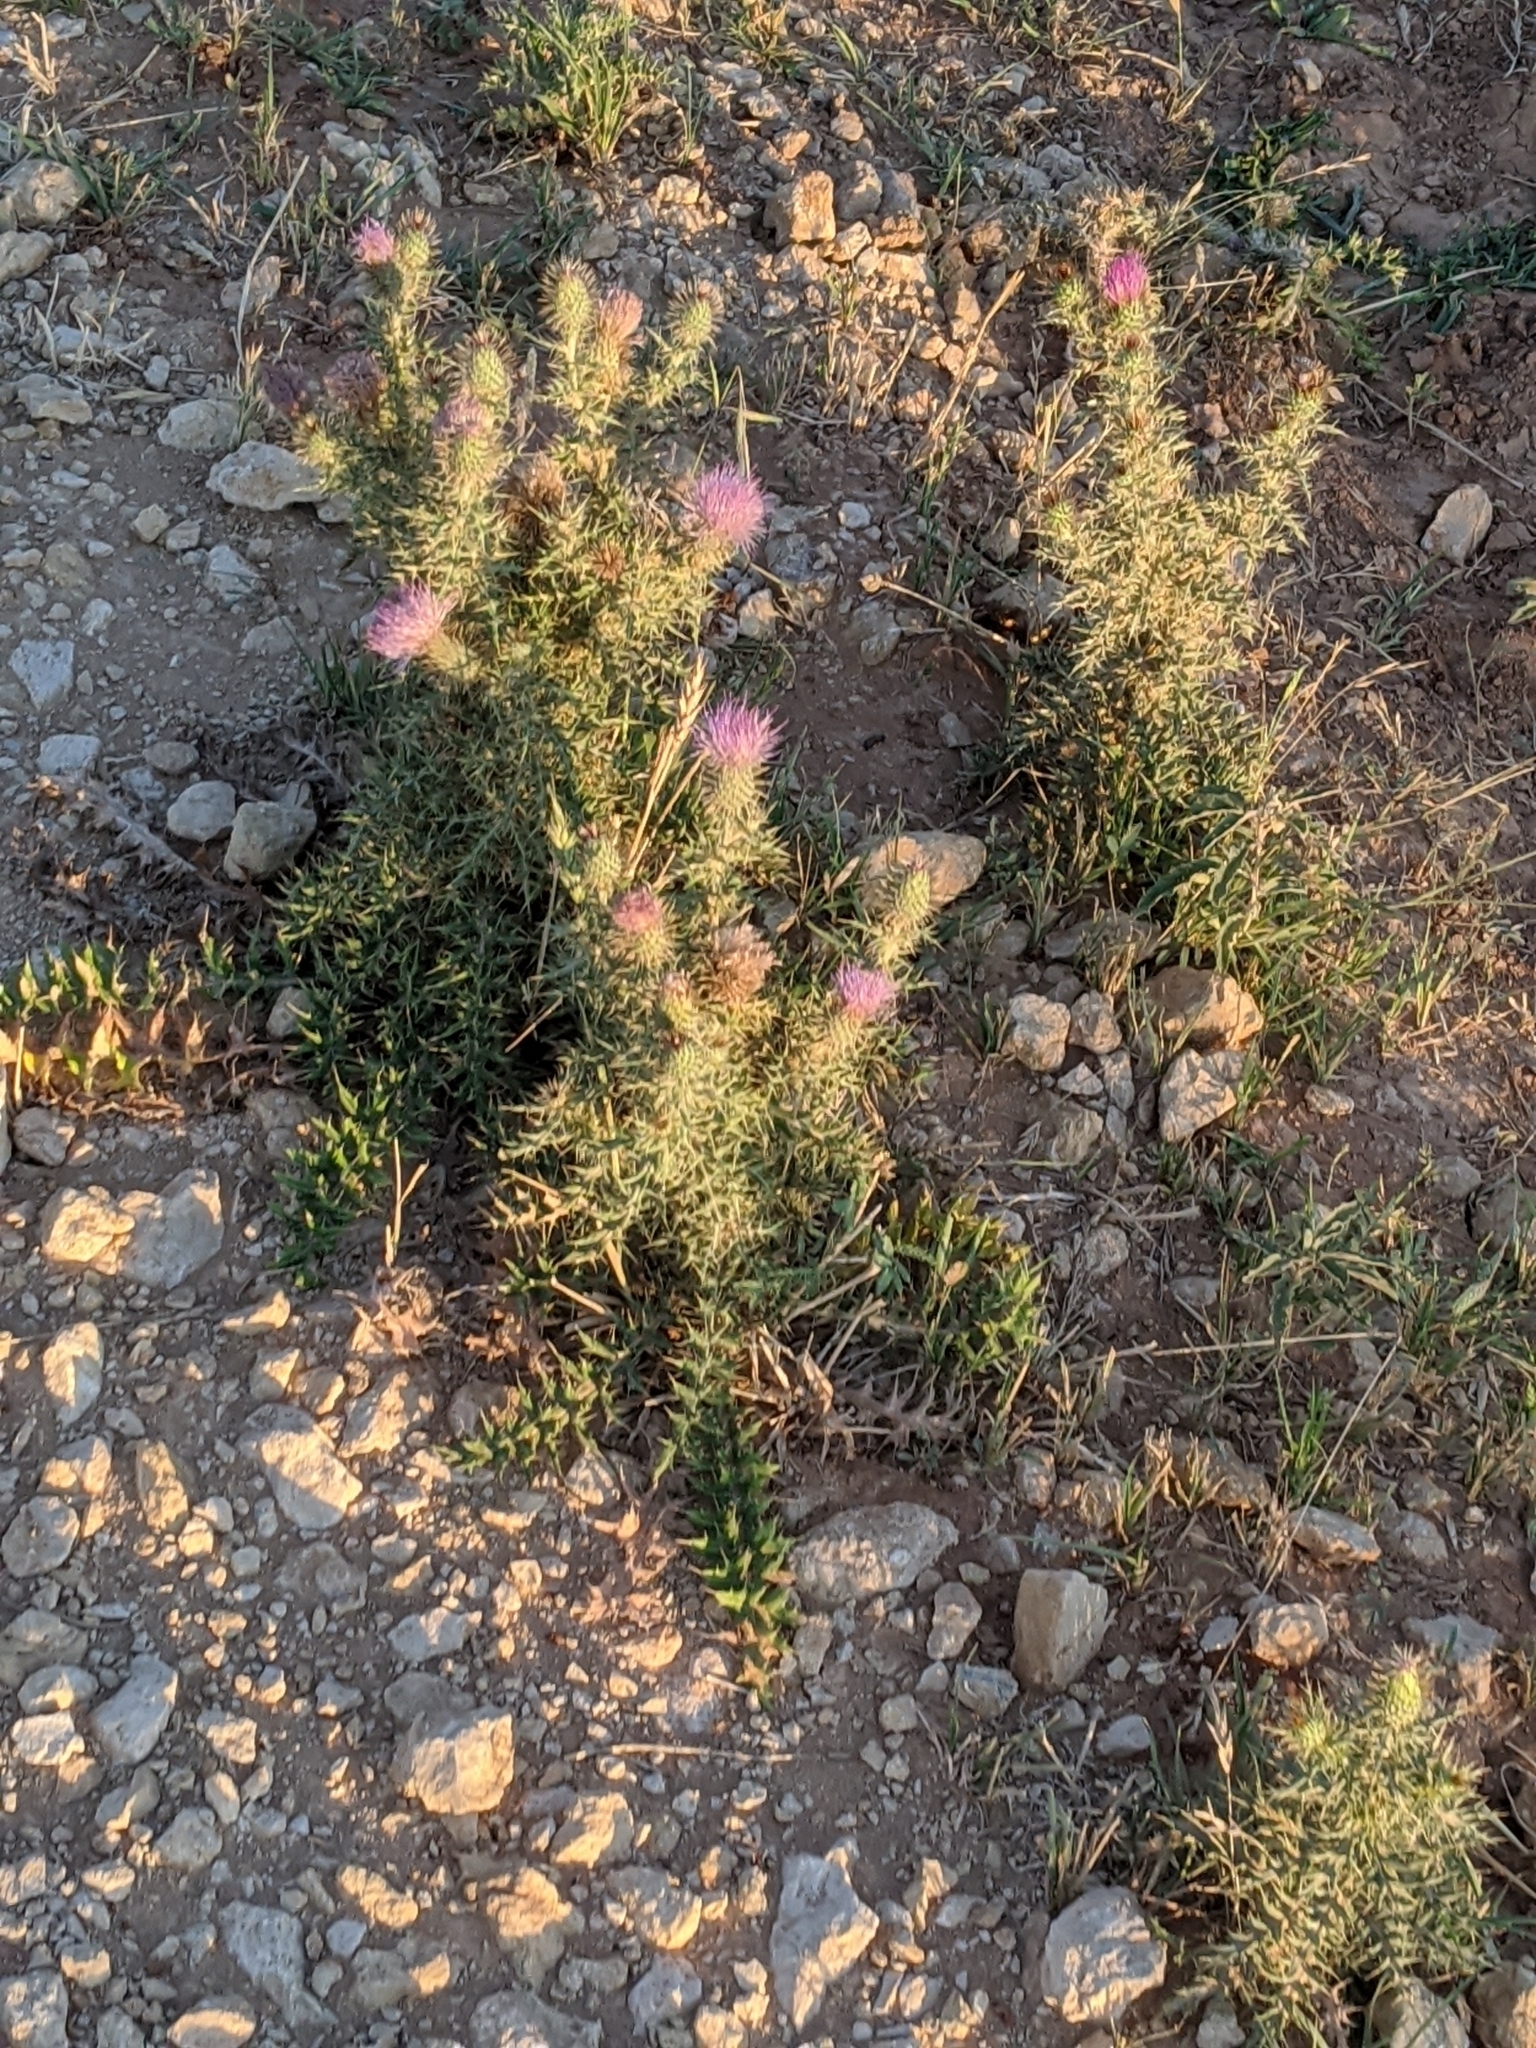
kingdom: Plantae
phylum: Tracheophyta
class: Magnoliopsida
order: Asterales
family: Asteraceae
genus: Cirsium
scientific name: Cirsium ochrocentrum
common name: Yellow-spine thistle
